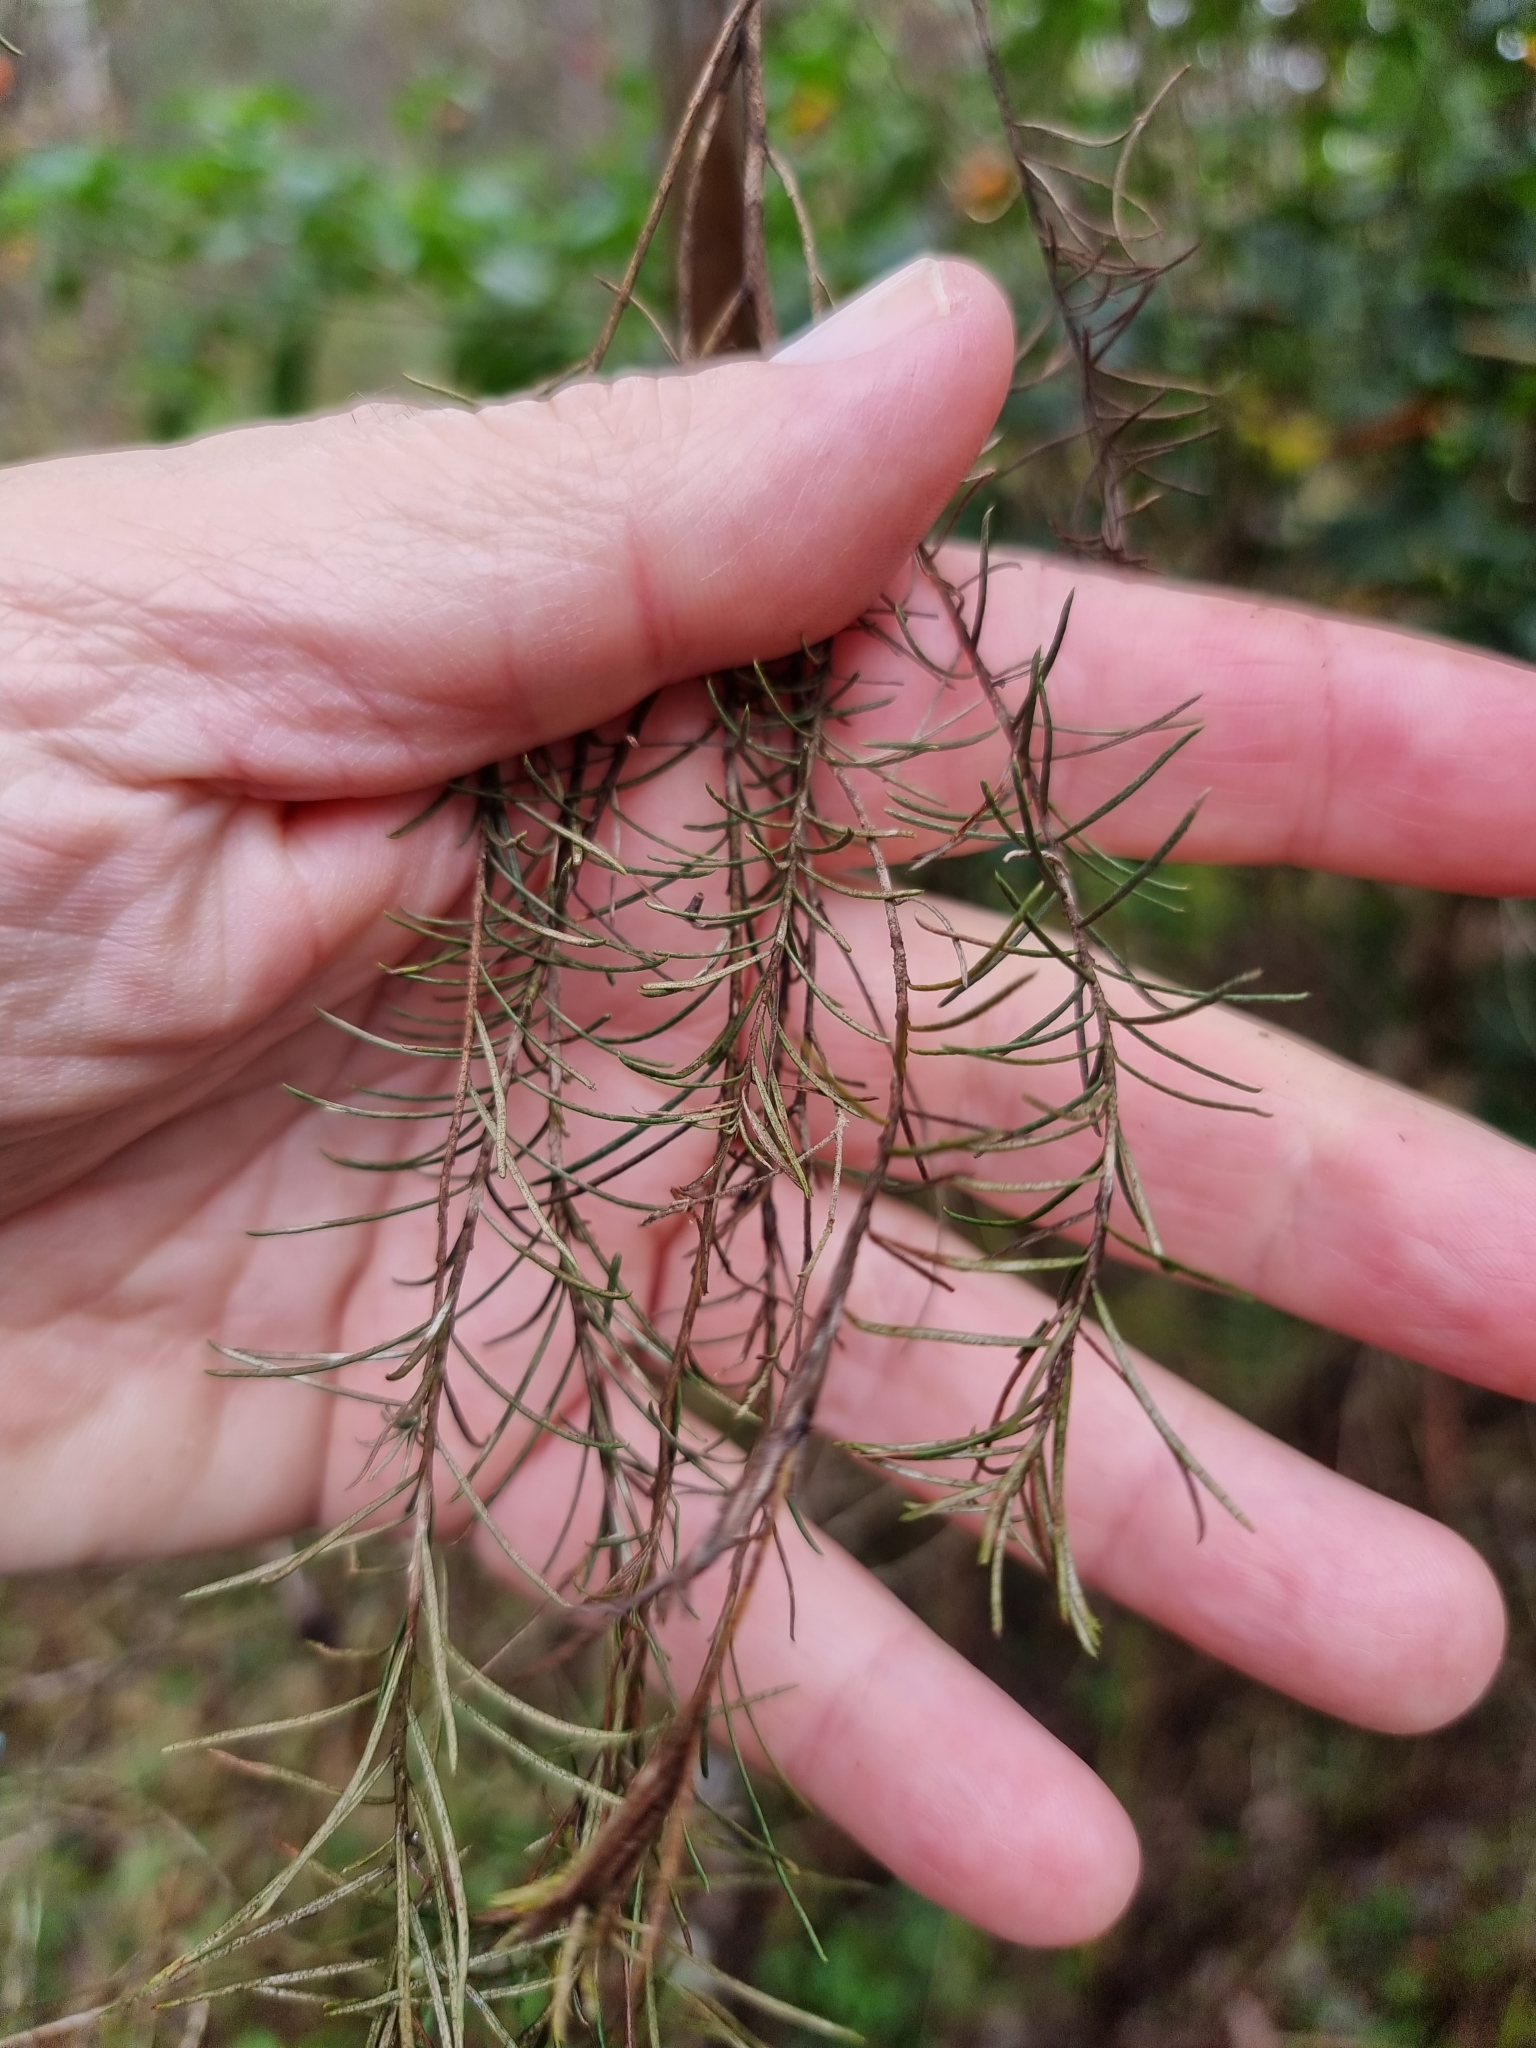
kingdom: Plantae
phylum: Tracheophyta
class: Magnoliopsida
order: Asterales
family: Asteraceae
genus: Cassinia
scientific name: Cassinia laevis
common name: Coughbush
